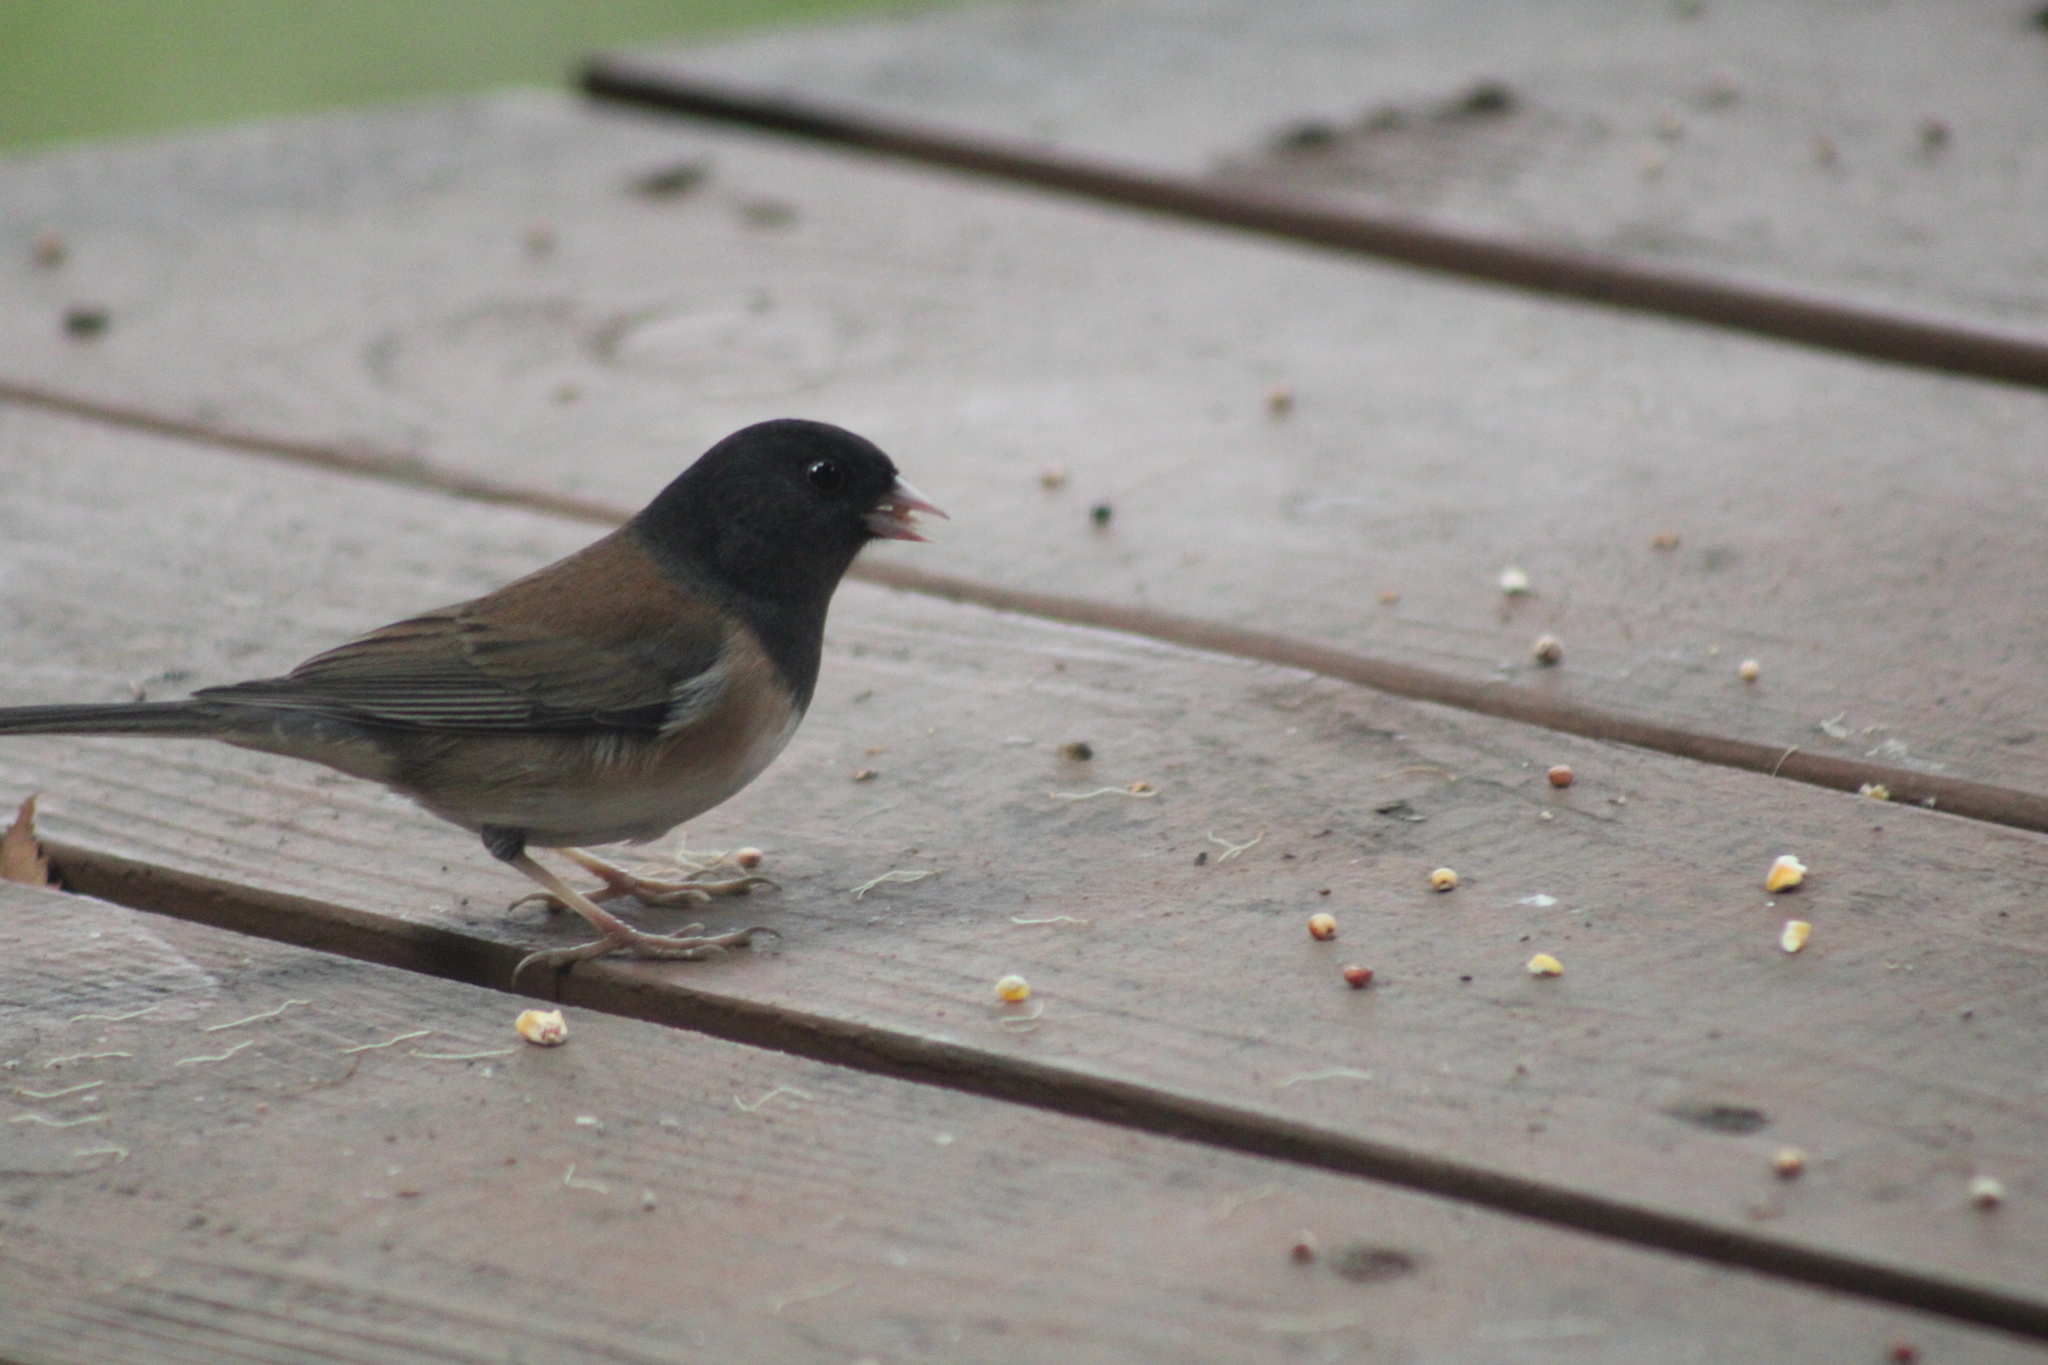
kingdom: Animalia
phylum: Chordata
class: Aves
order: Passeriformes
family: Passerellidae
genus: Junco
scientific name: Junco hyemalis
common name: Dark-eyed junco
